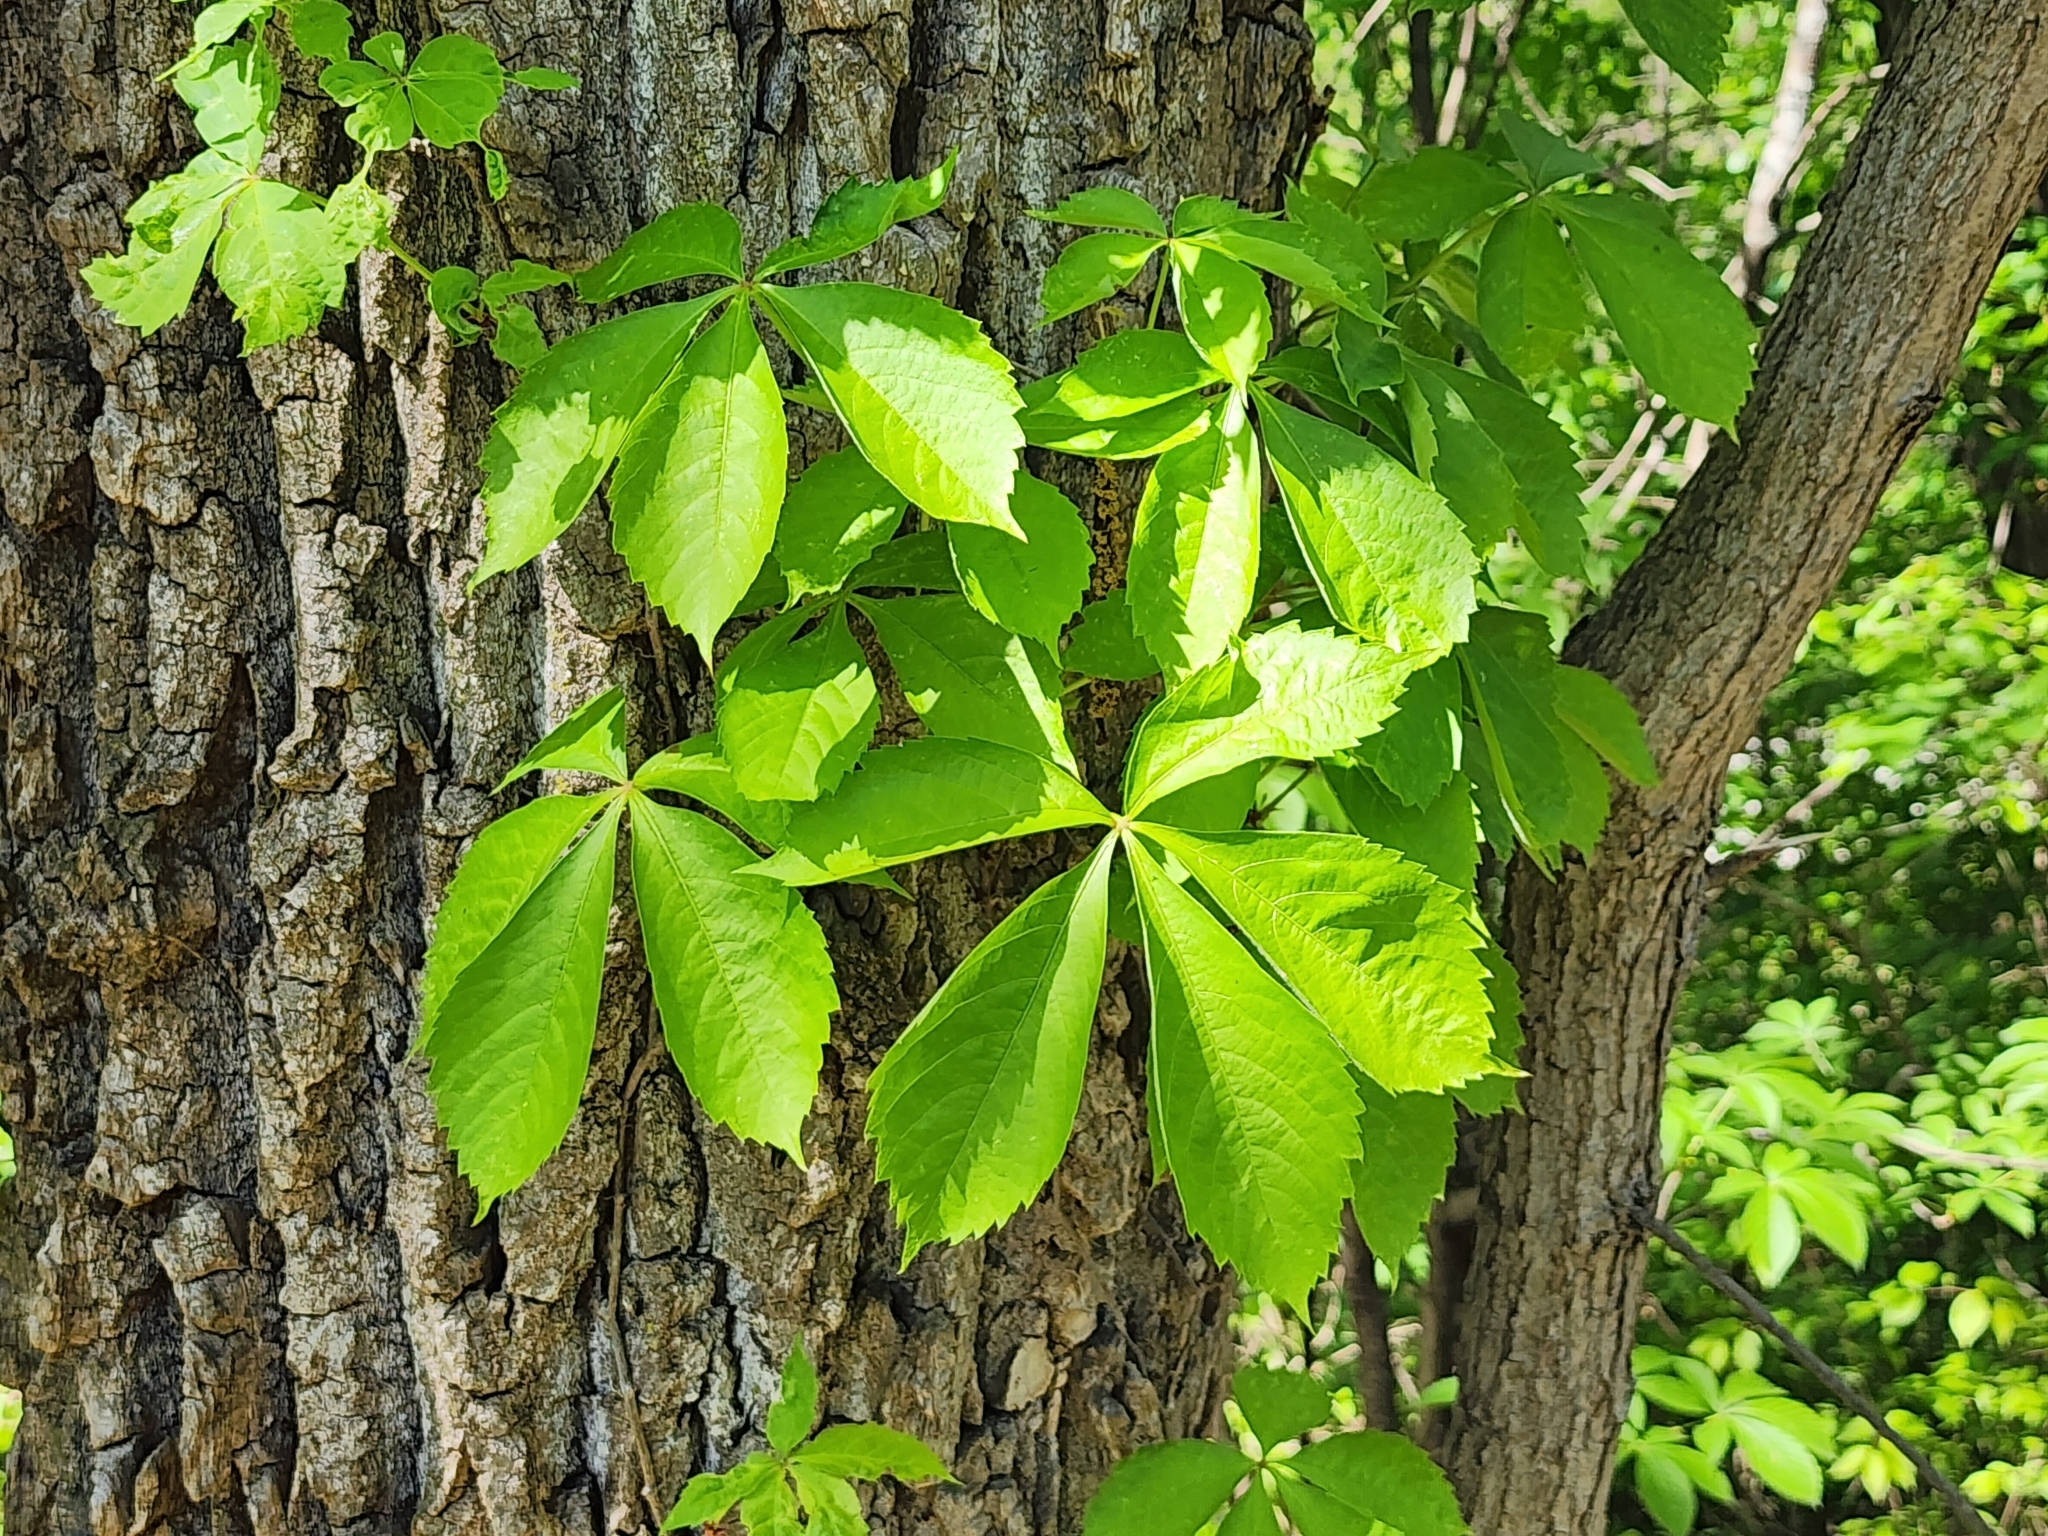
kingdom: Plantae
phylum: Tracheophyta
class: Magnoliopsida
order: Vitales
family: Vitaceae
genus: Parthenocissus
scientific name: Parthenocissus quinquefolia
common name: Virginia-creeper
